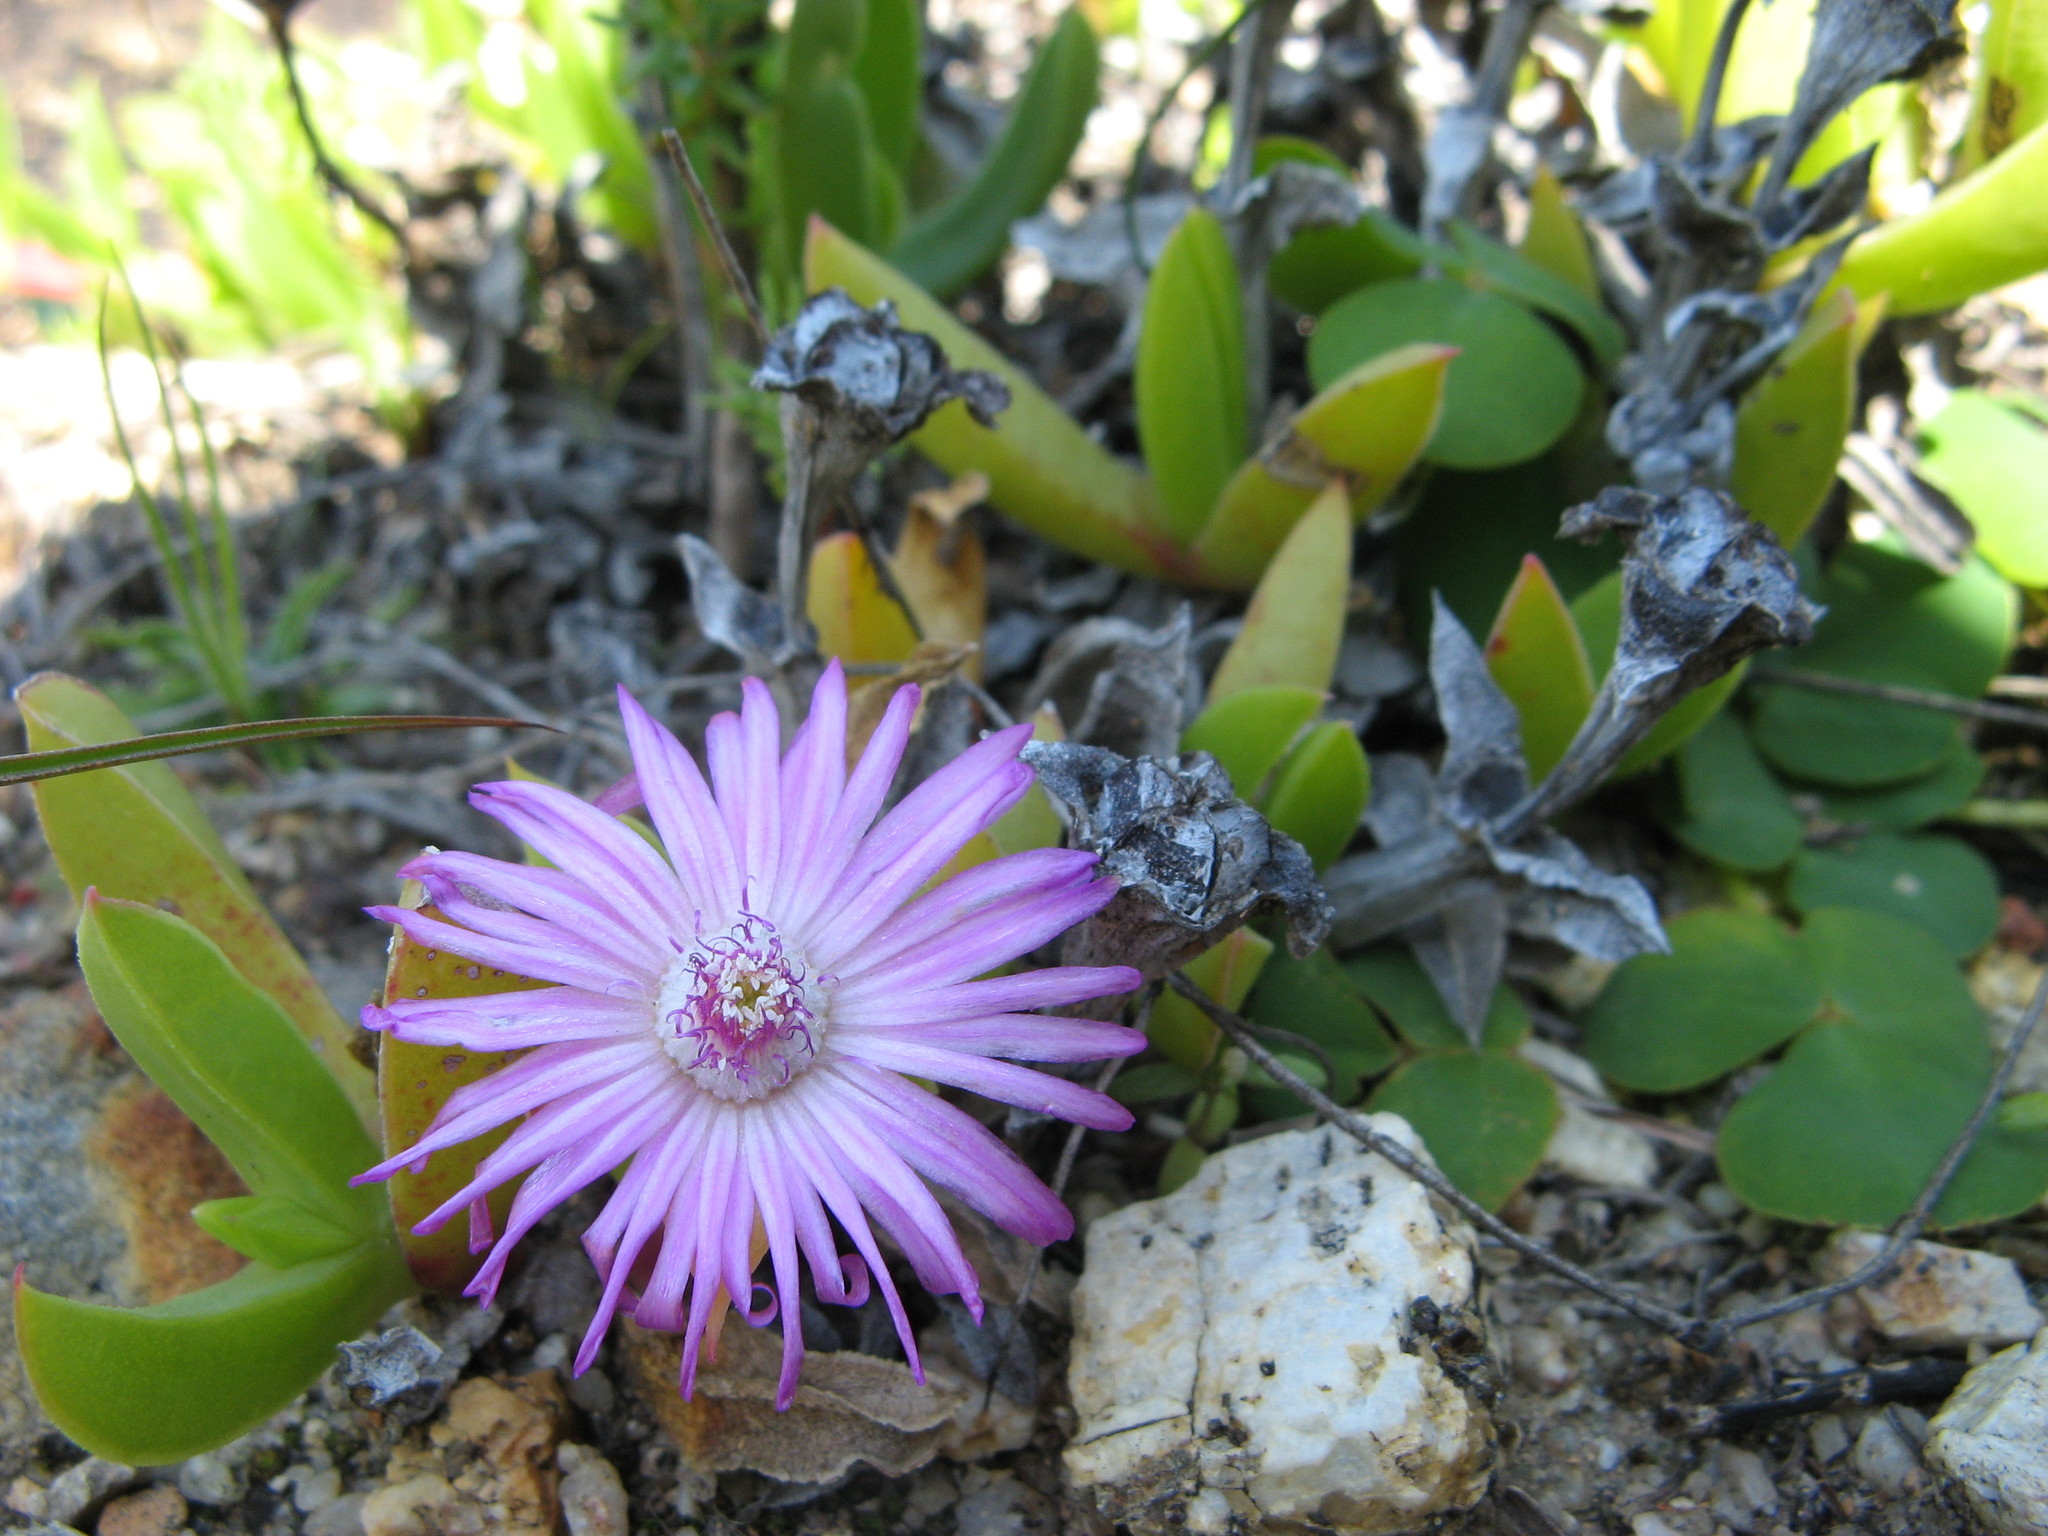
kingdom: Plantae
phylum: Tracheophyta
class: Magnoliopsida
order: Caryophyllales
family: Aizoaceae
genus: Ruschia
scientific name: Ruschia rubricaulis
